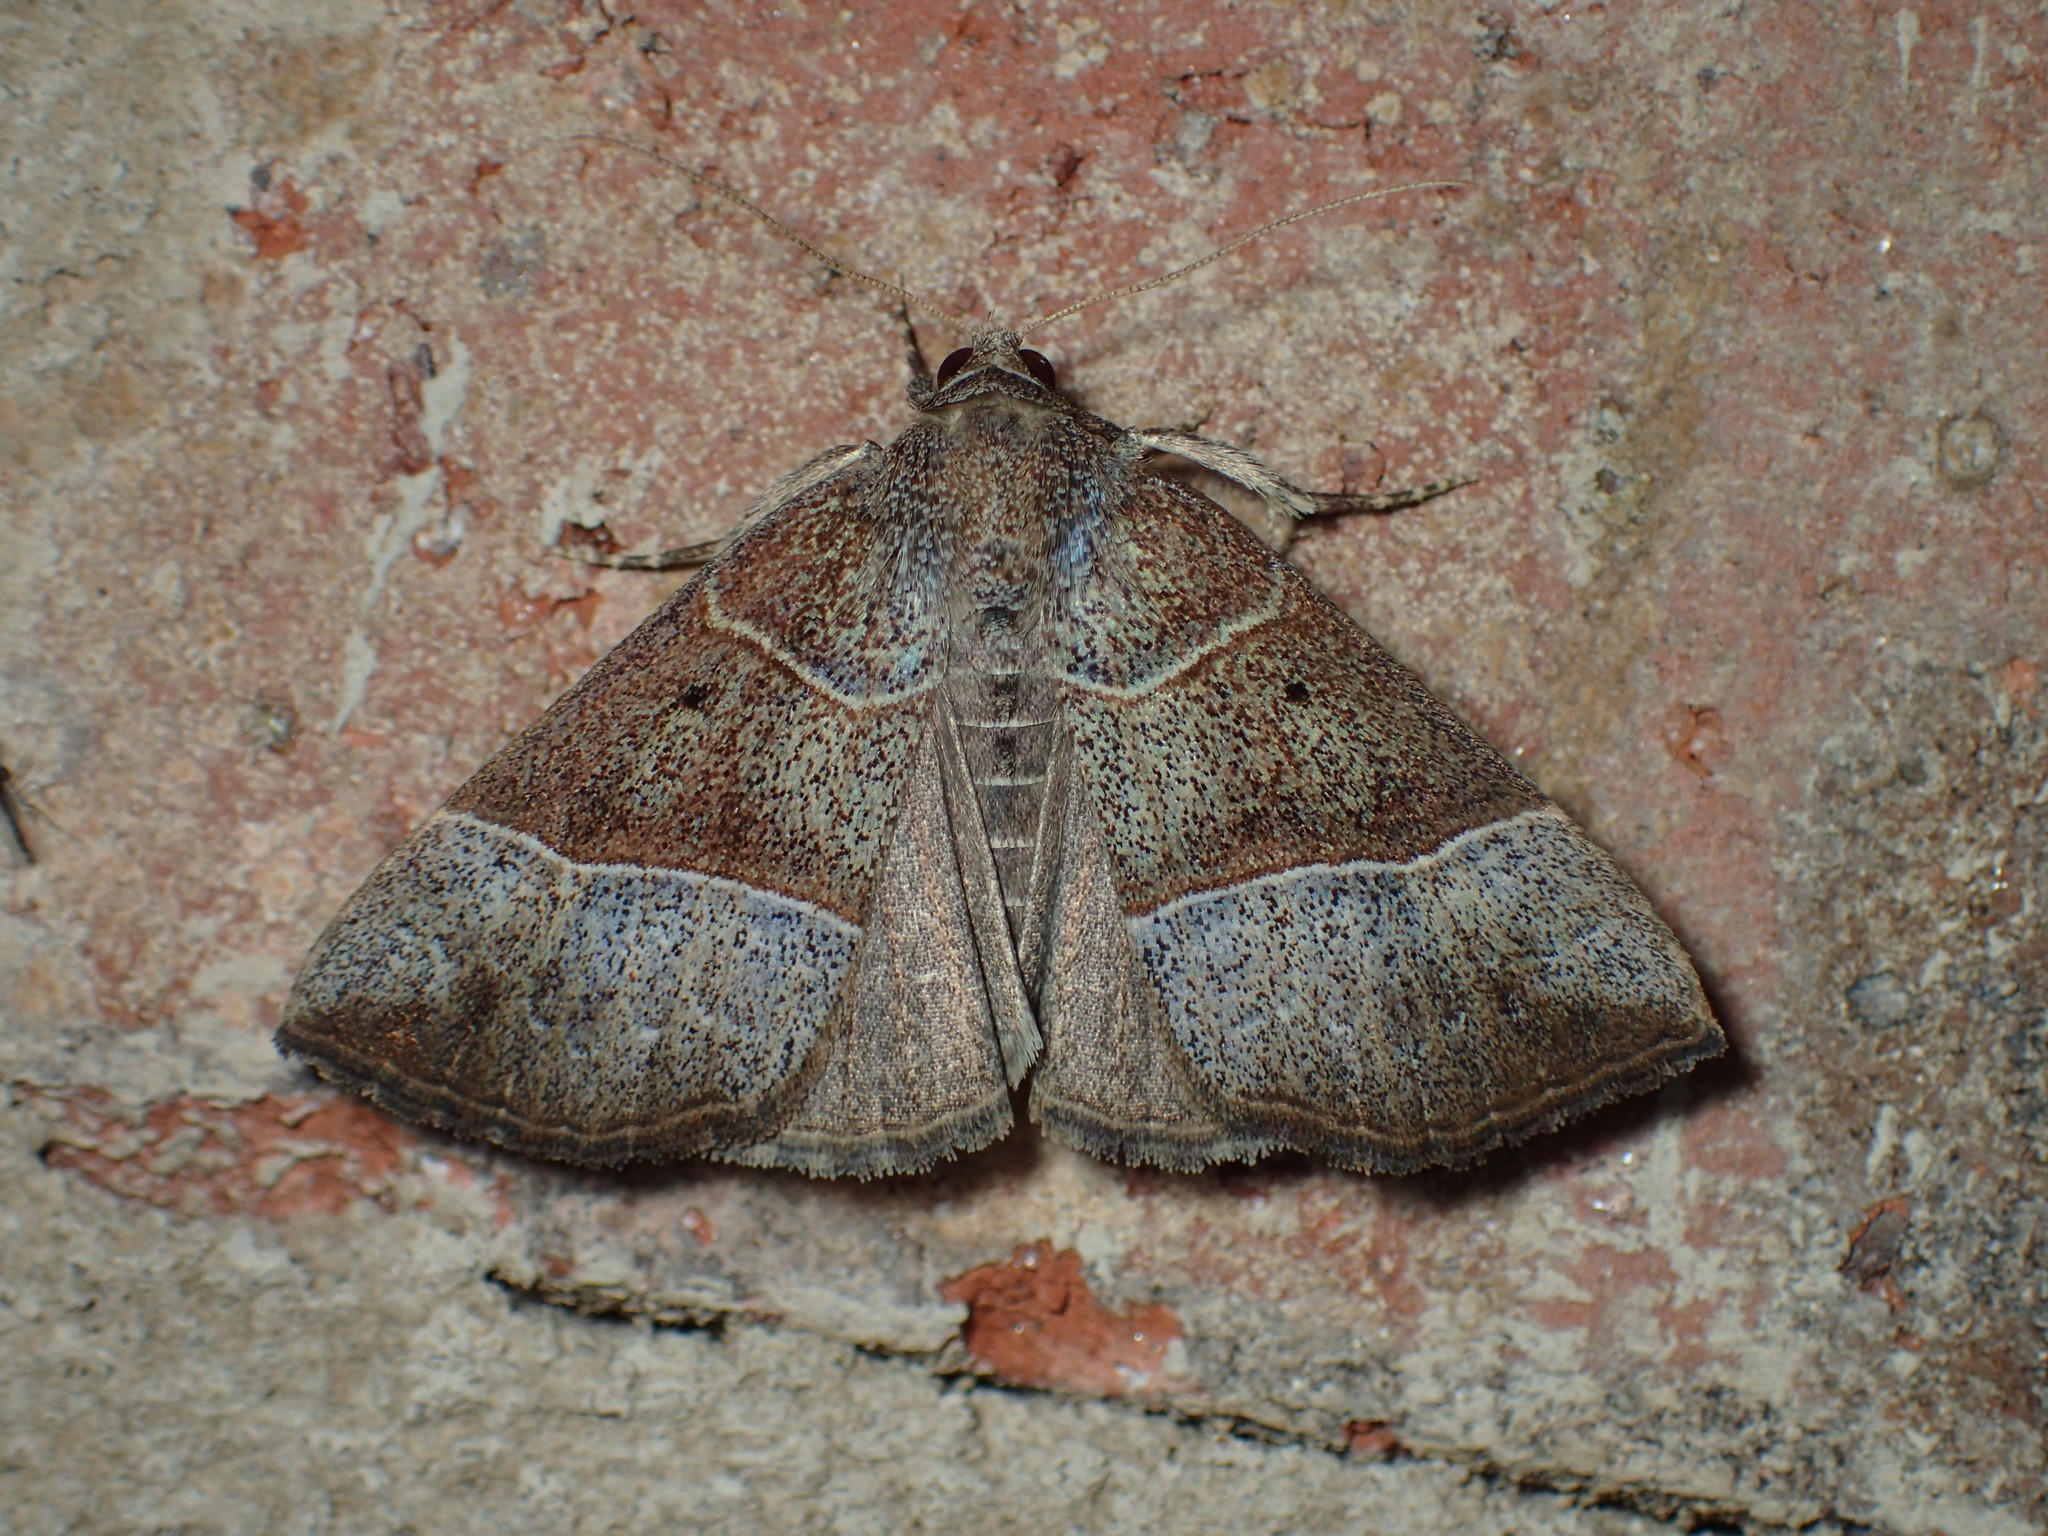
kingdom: Animalia
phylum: Arthropoda
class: Insecta
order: Lepidoptera
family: Erebidae
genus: Hypena
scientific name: Hypena deceptalis
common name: Deceptive snout
